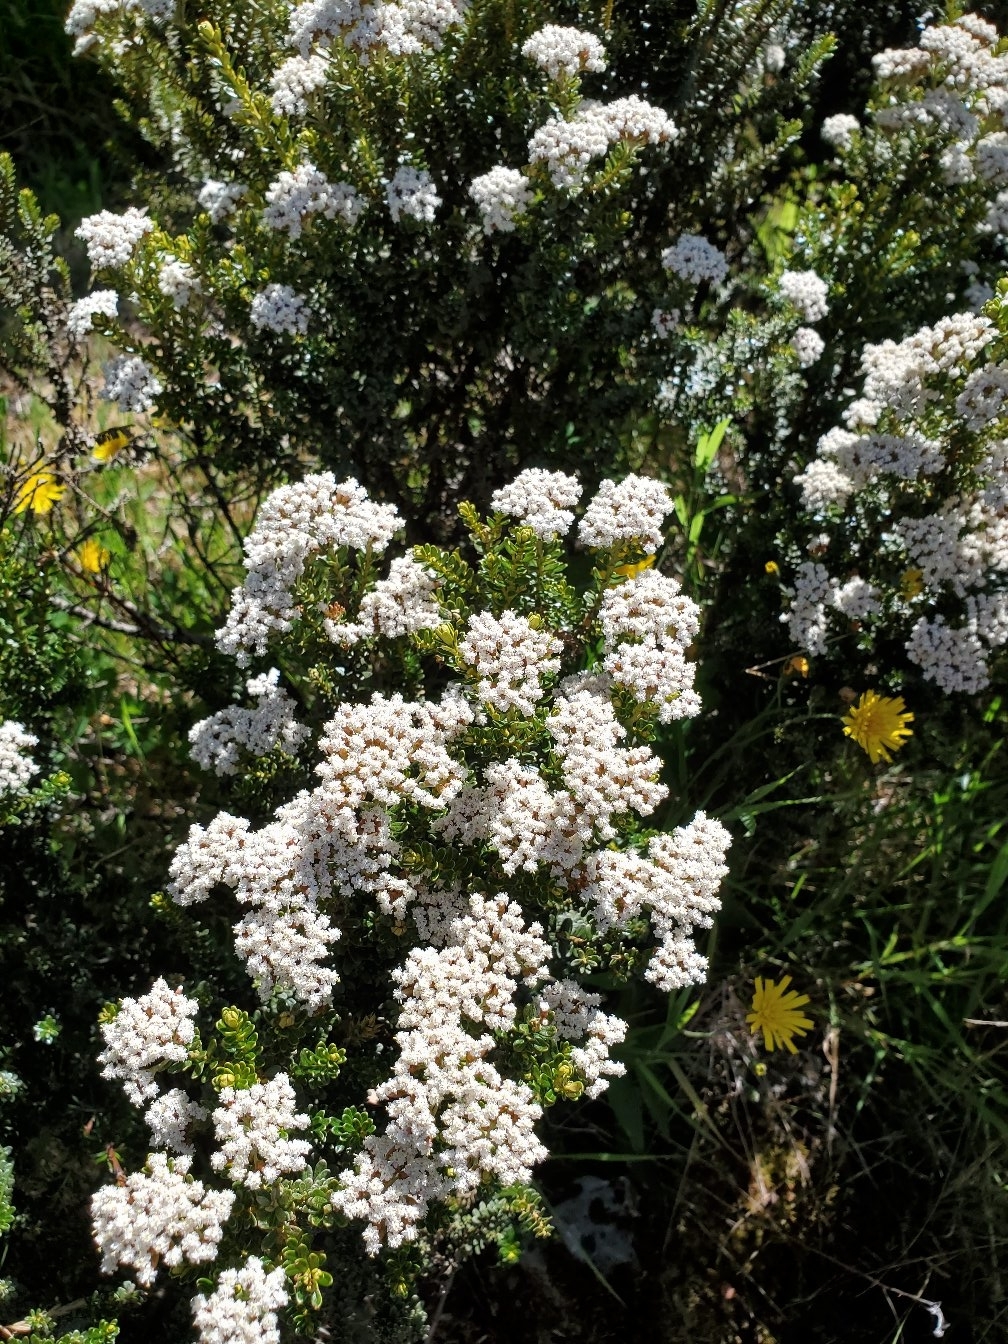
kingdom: Plantae
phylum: Tracheophyta
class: Magnoliopsida
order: Asterales
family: Asteraceae
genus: Ozothamnus
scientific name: Ozothamnus leptophyllus
